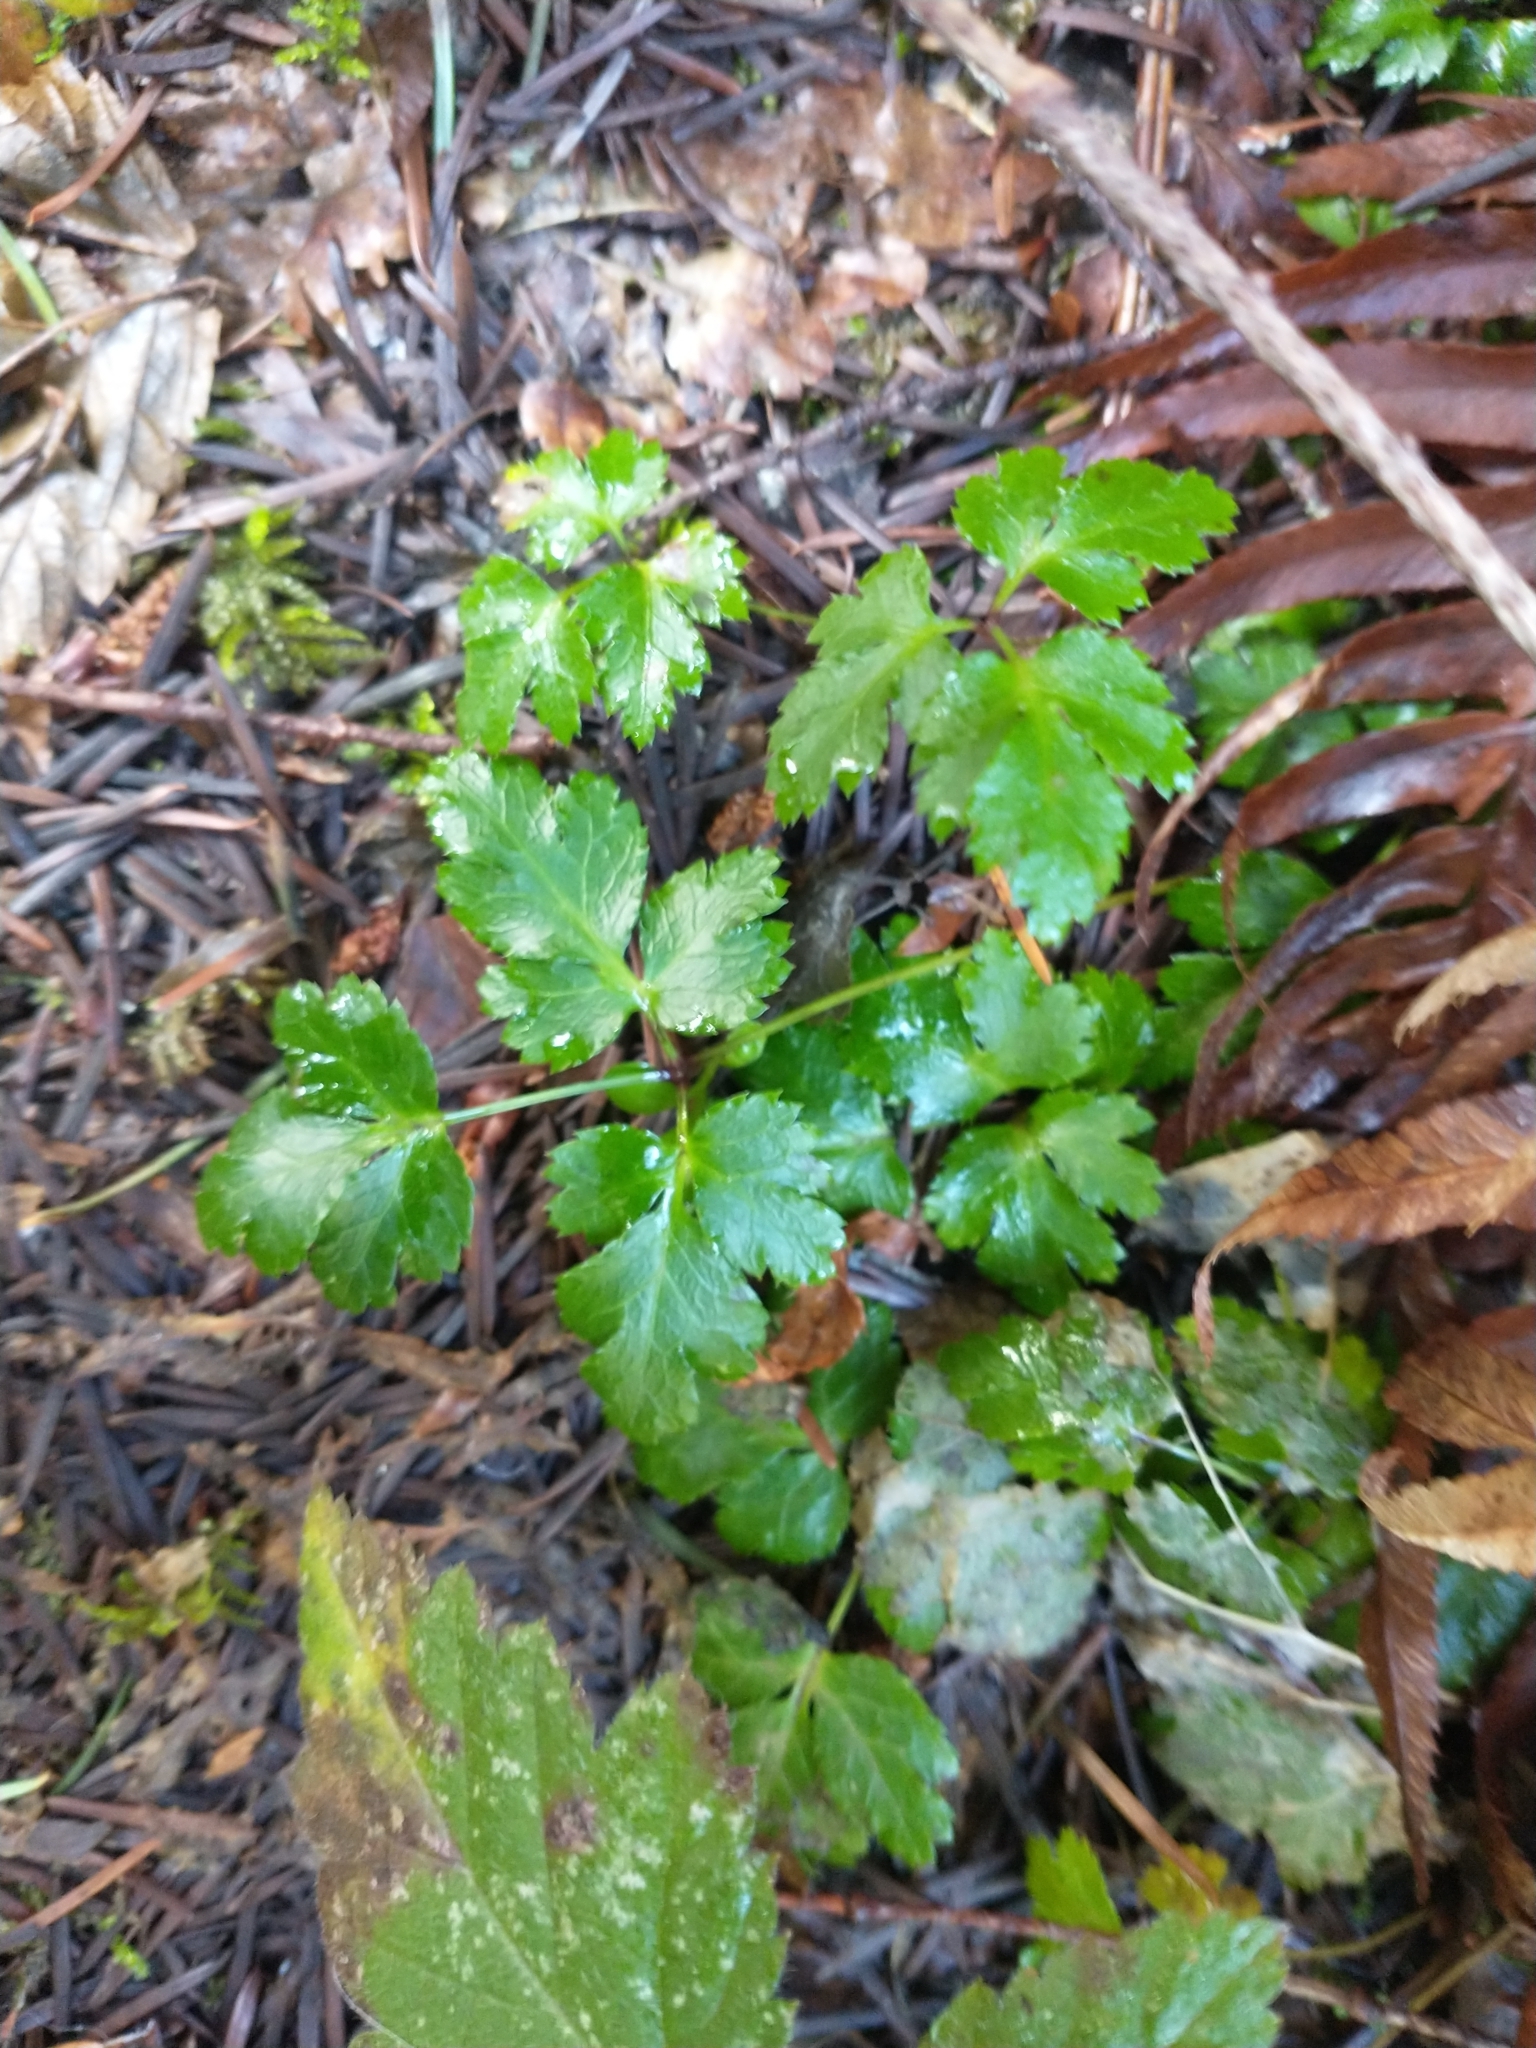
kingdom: Plantae
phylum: Tracheophyta
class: Magnoliopsida
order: Ranunculales
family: Ranunculaceae
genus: Coptis
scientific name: Coptis laciniata
